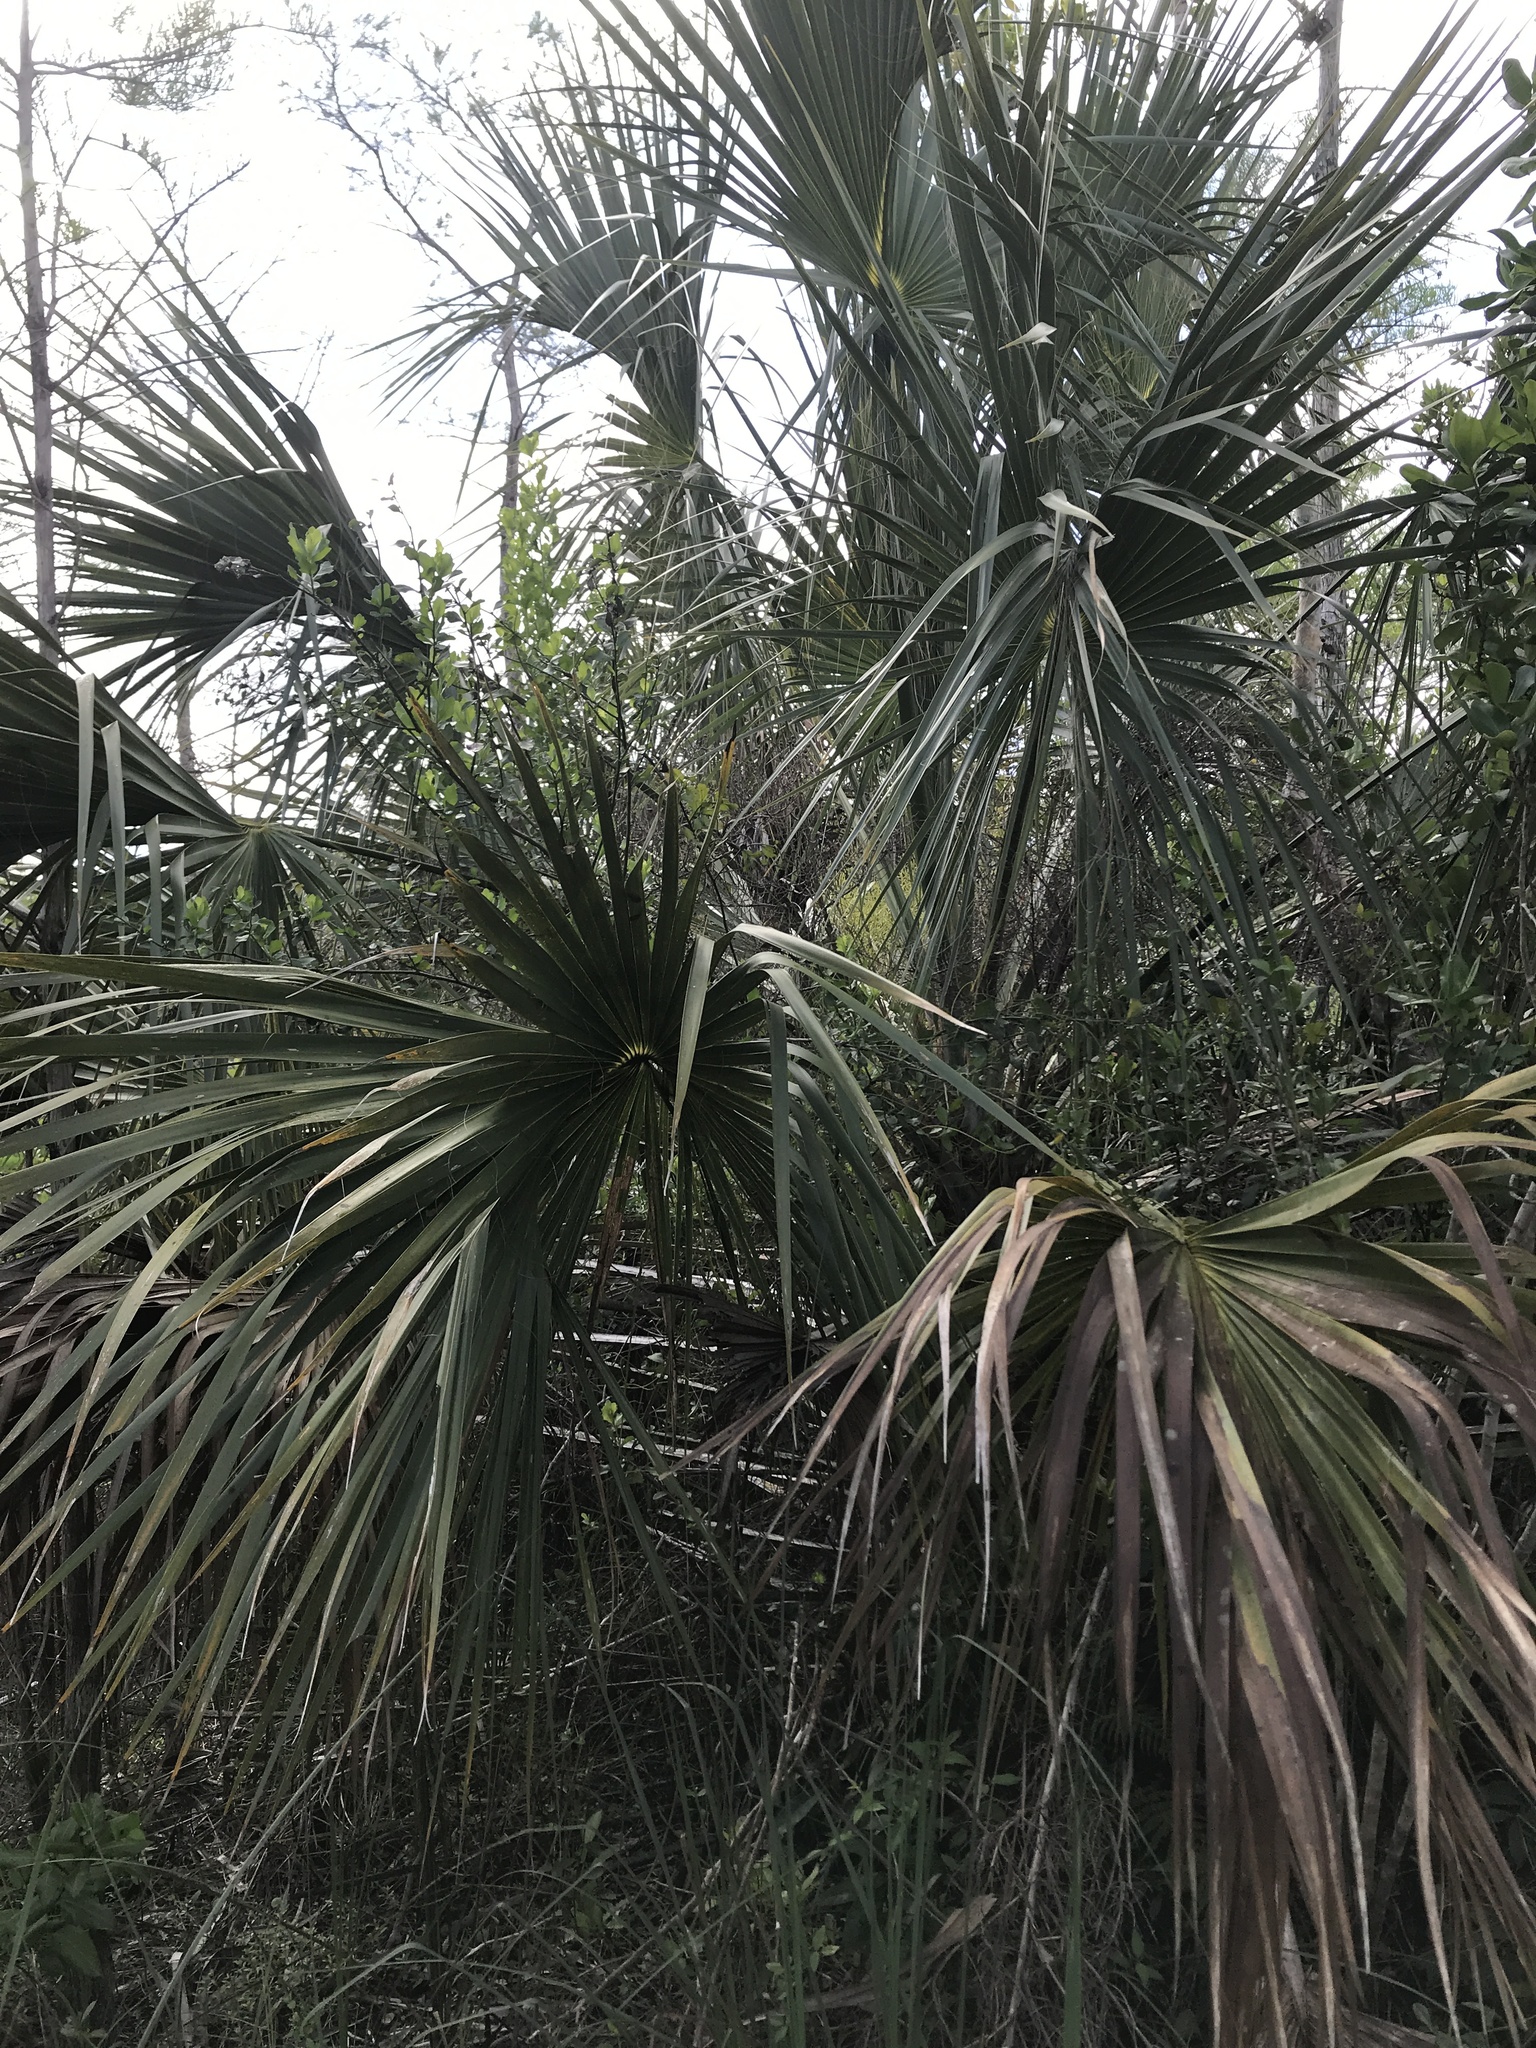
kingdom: Plantae
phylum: Tracheophyta
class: Liliopsida
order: Arecales
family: Arecaceae
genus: Sabal
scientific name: Sabal palmetto
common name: Blue palmetto
